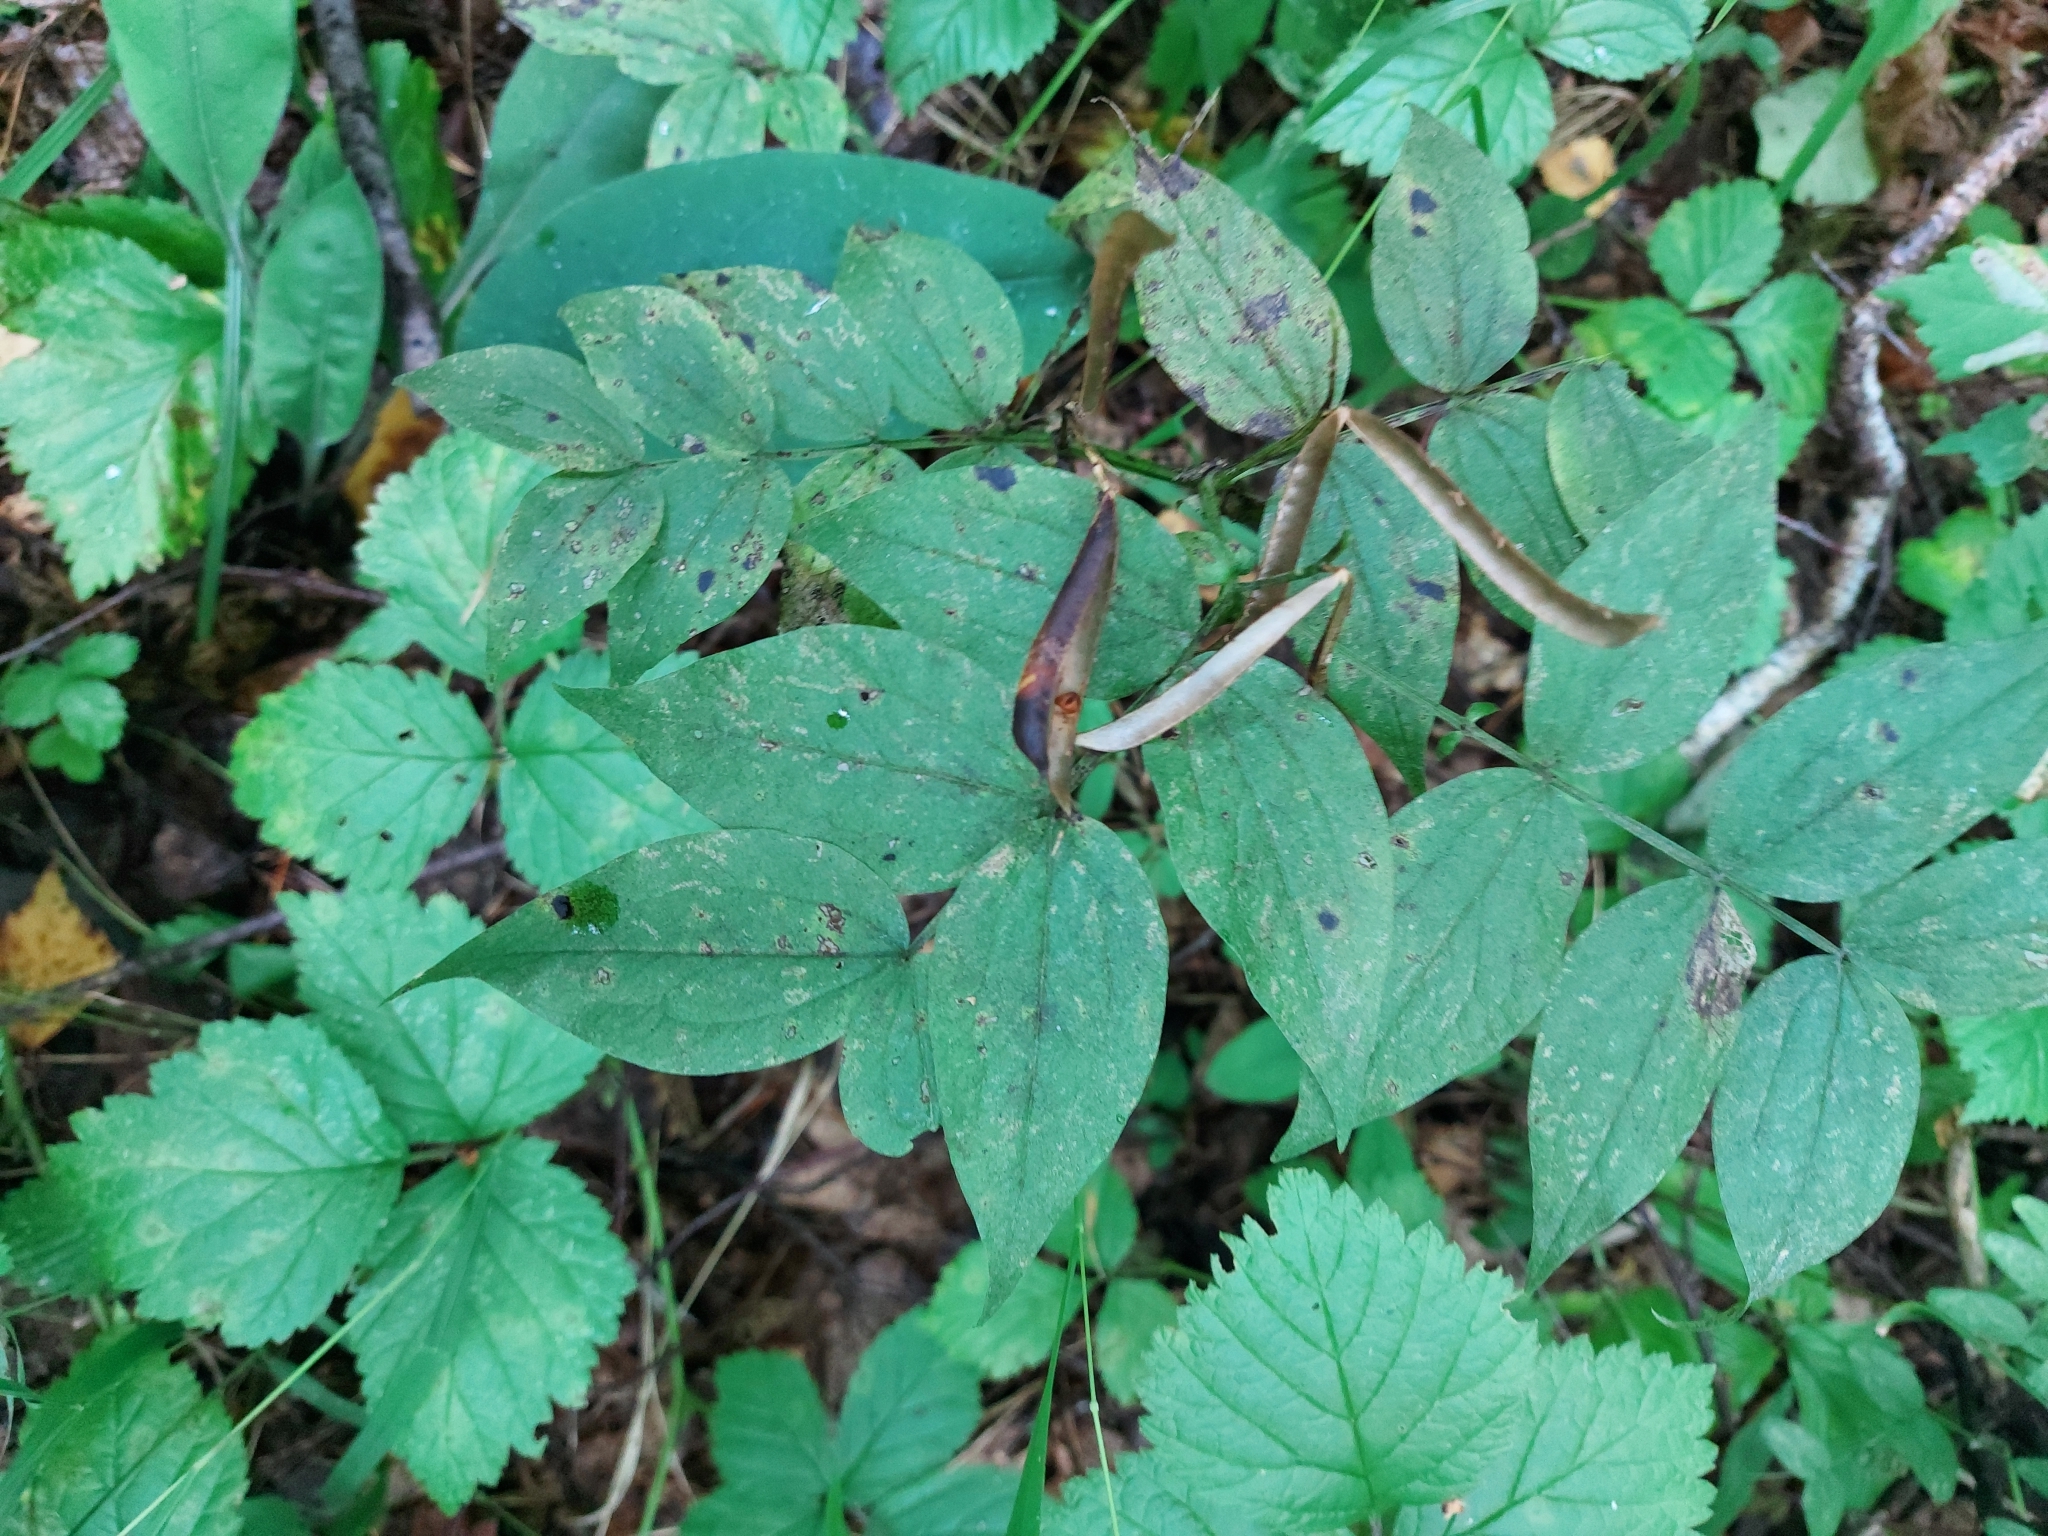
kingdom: Plantae
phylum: Tracheophyta
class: Magnoliopsida
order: Fabales
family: Fabaceae
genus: Lathyrus
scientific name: Lathyrus vernus
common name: Spring pea
